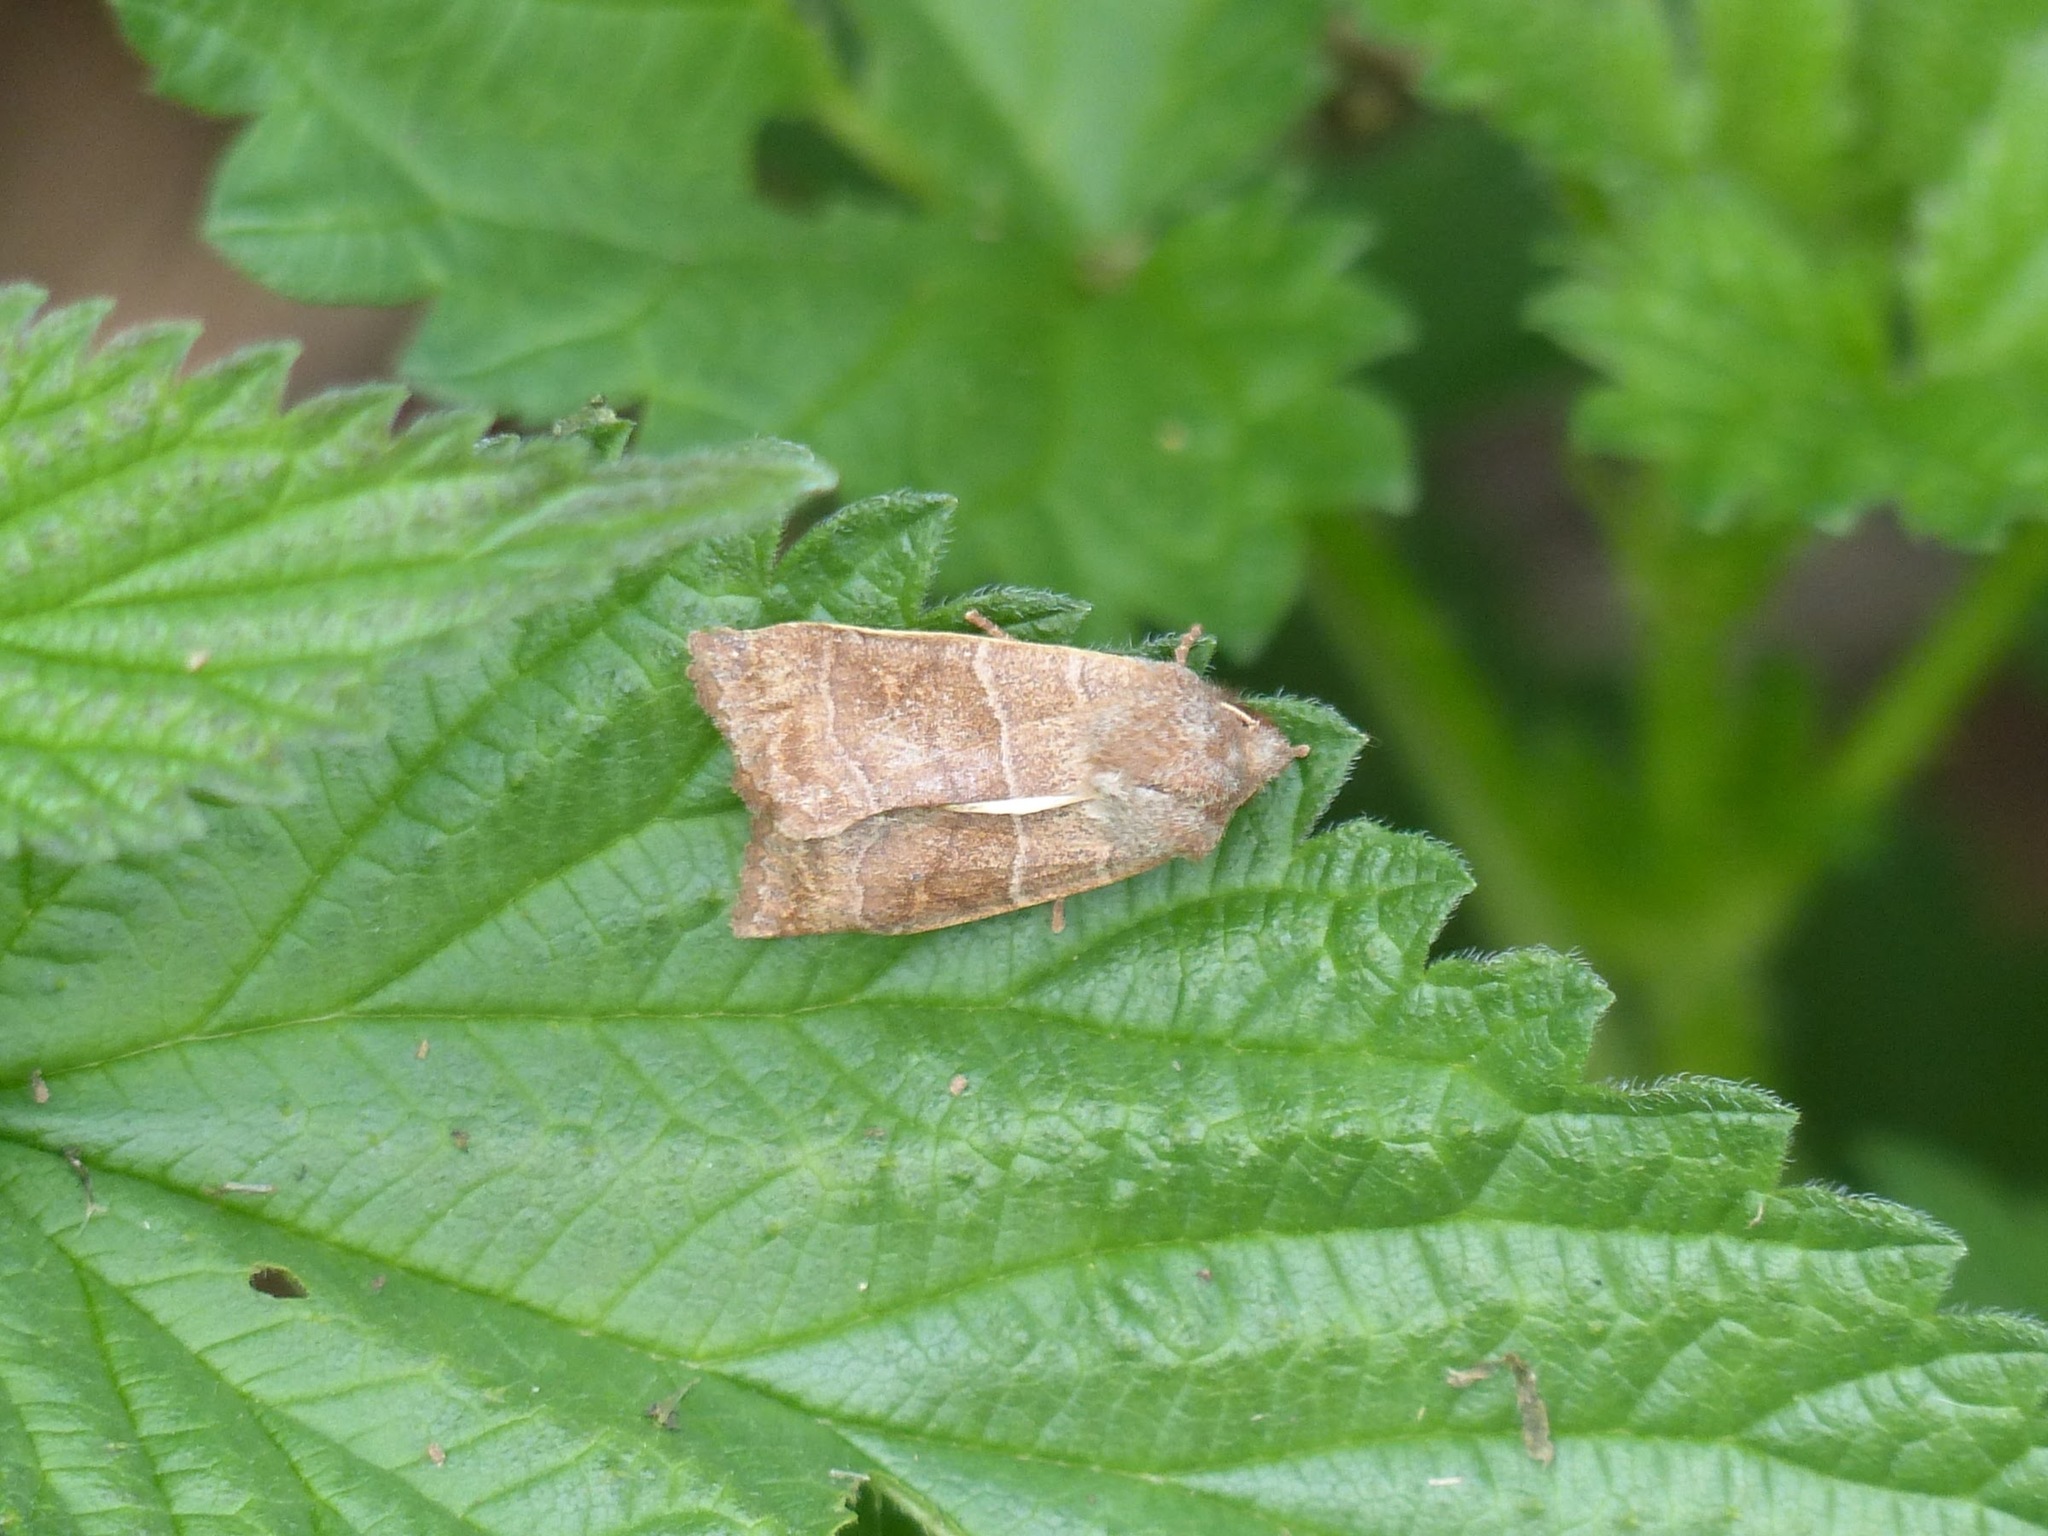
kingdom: Animalia
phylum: Arthropoda
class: Insecta
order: Lepidoptera
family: Noctuidae
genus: Eupsilia
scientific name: Eupsilia morrisoni
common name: Morrison's sallow
